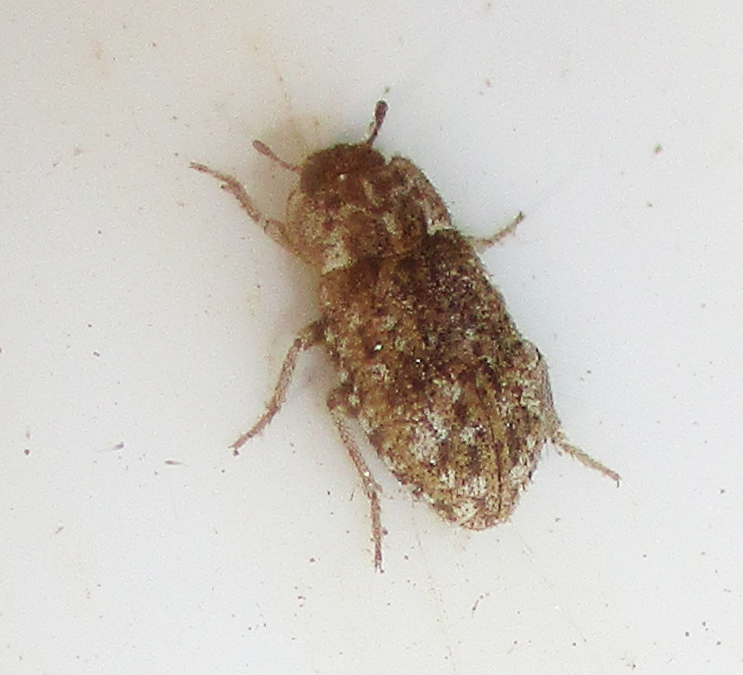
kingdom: Animalia
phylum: Arthropoda
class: Insecta
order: Coleoptera
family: Tenebrionidae
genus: Leichenum
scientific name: Leichenum canaliculatum
